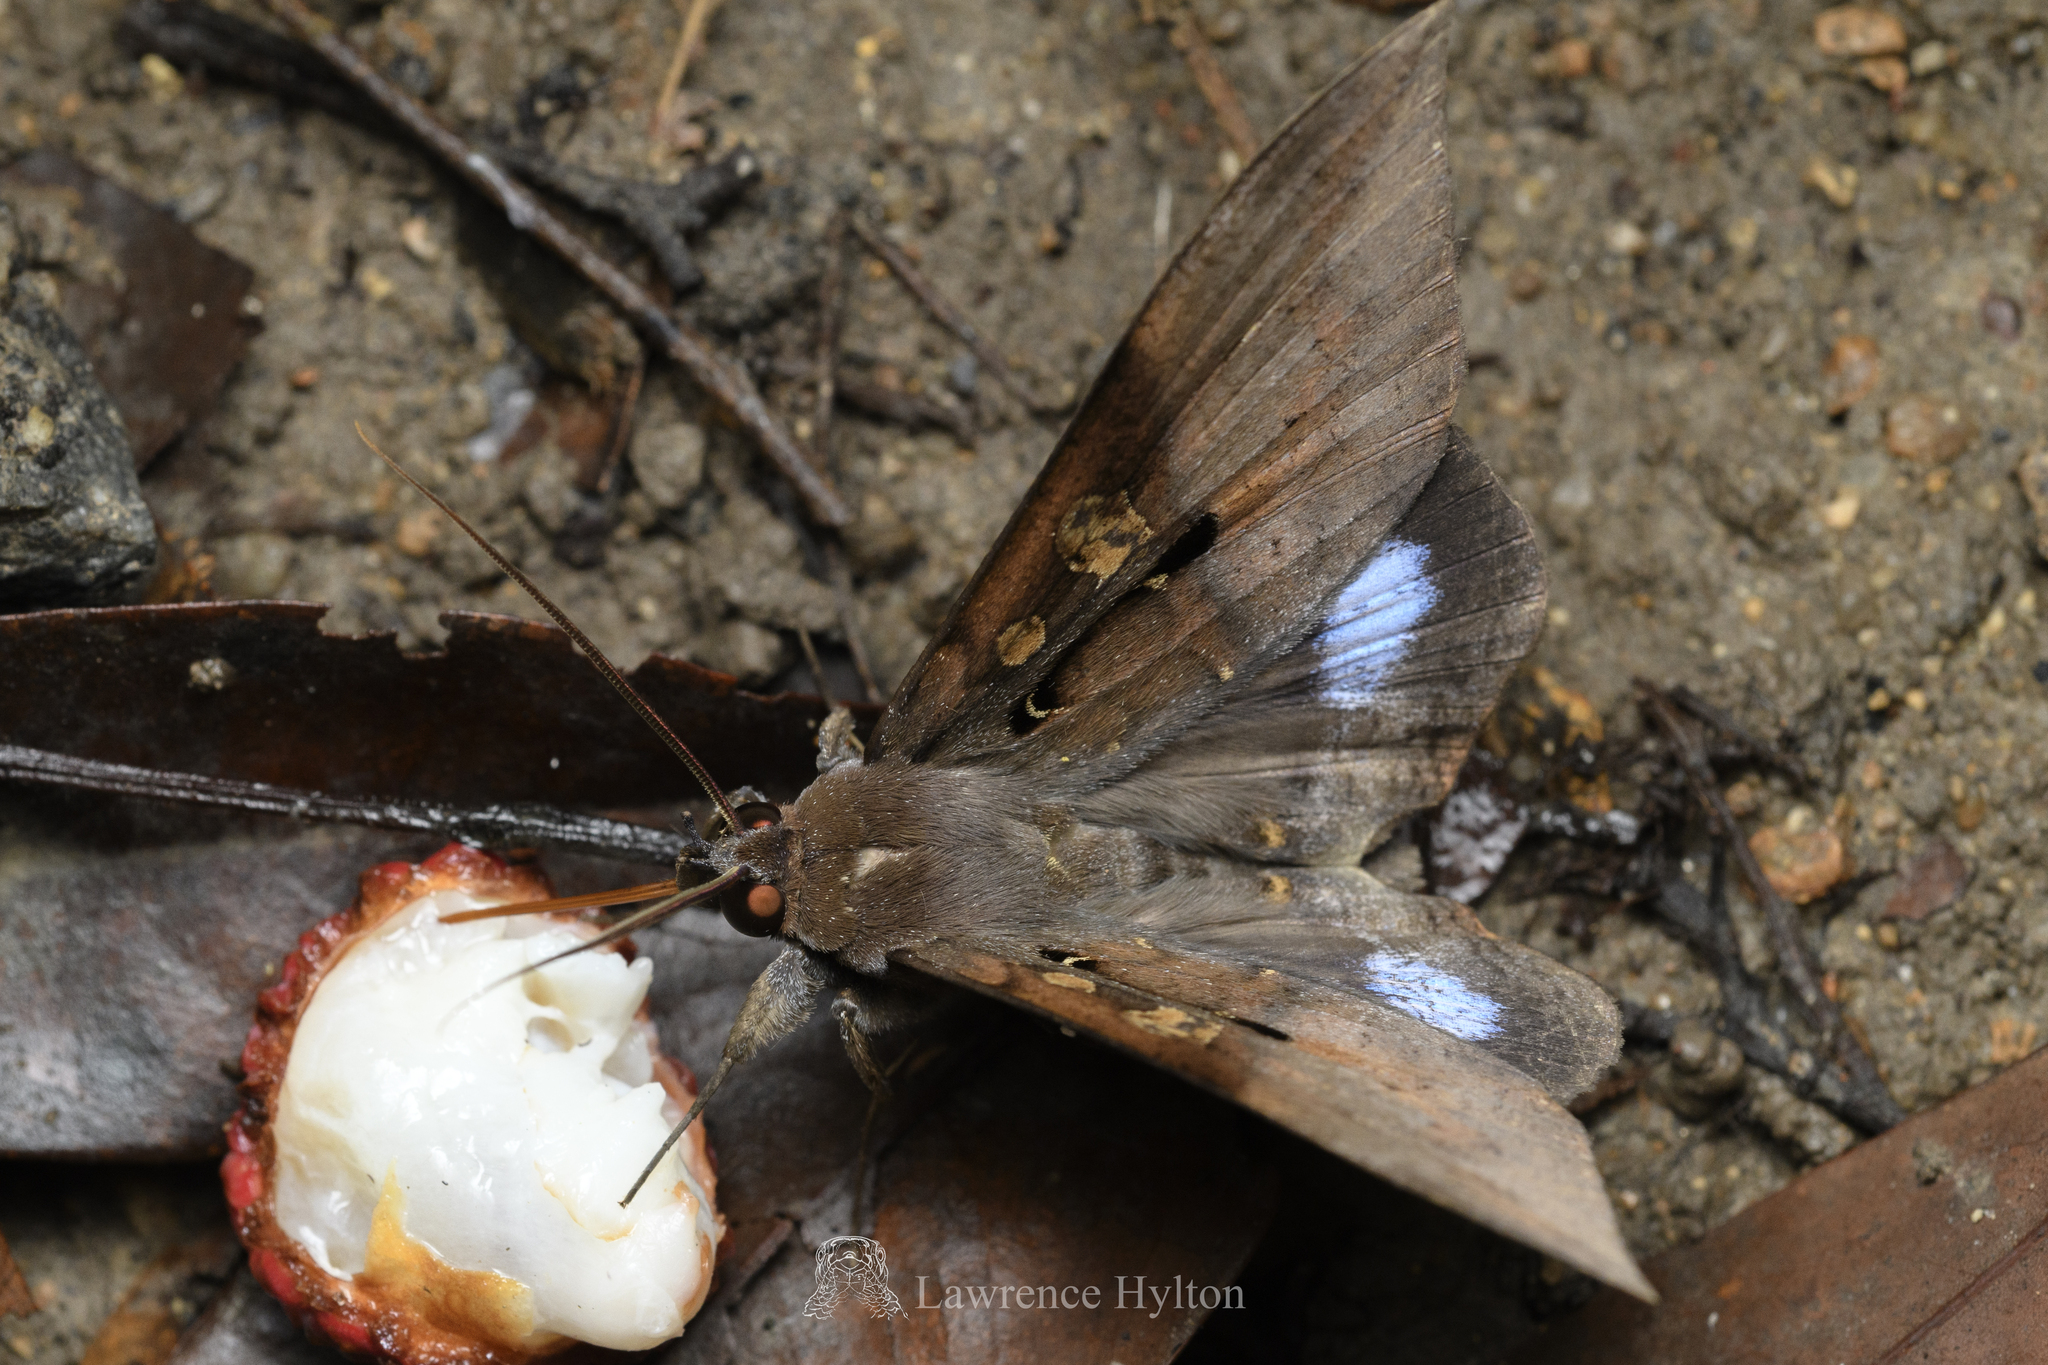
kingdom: Animalia
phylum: Arthropoda
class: Insecta
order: Lepidoptera
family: Erebidae
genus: Ischyja
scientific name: Ischyja manlia
